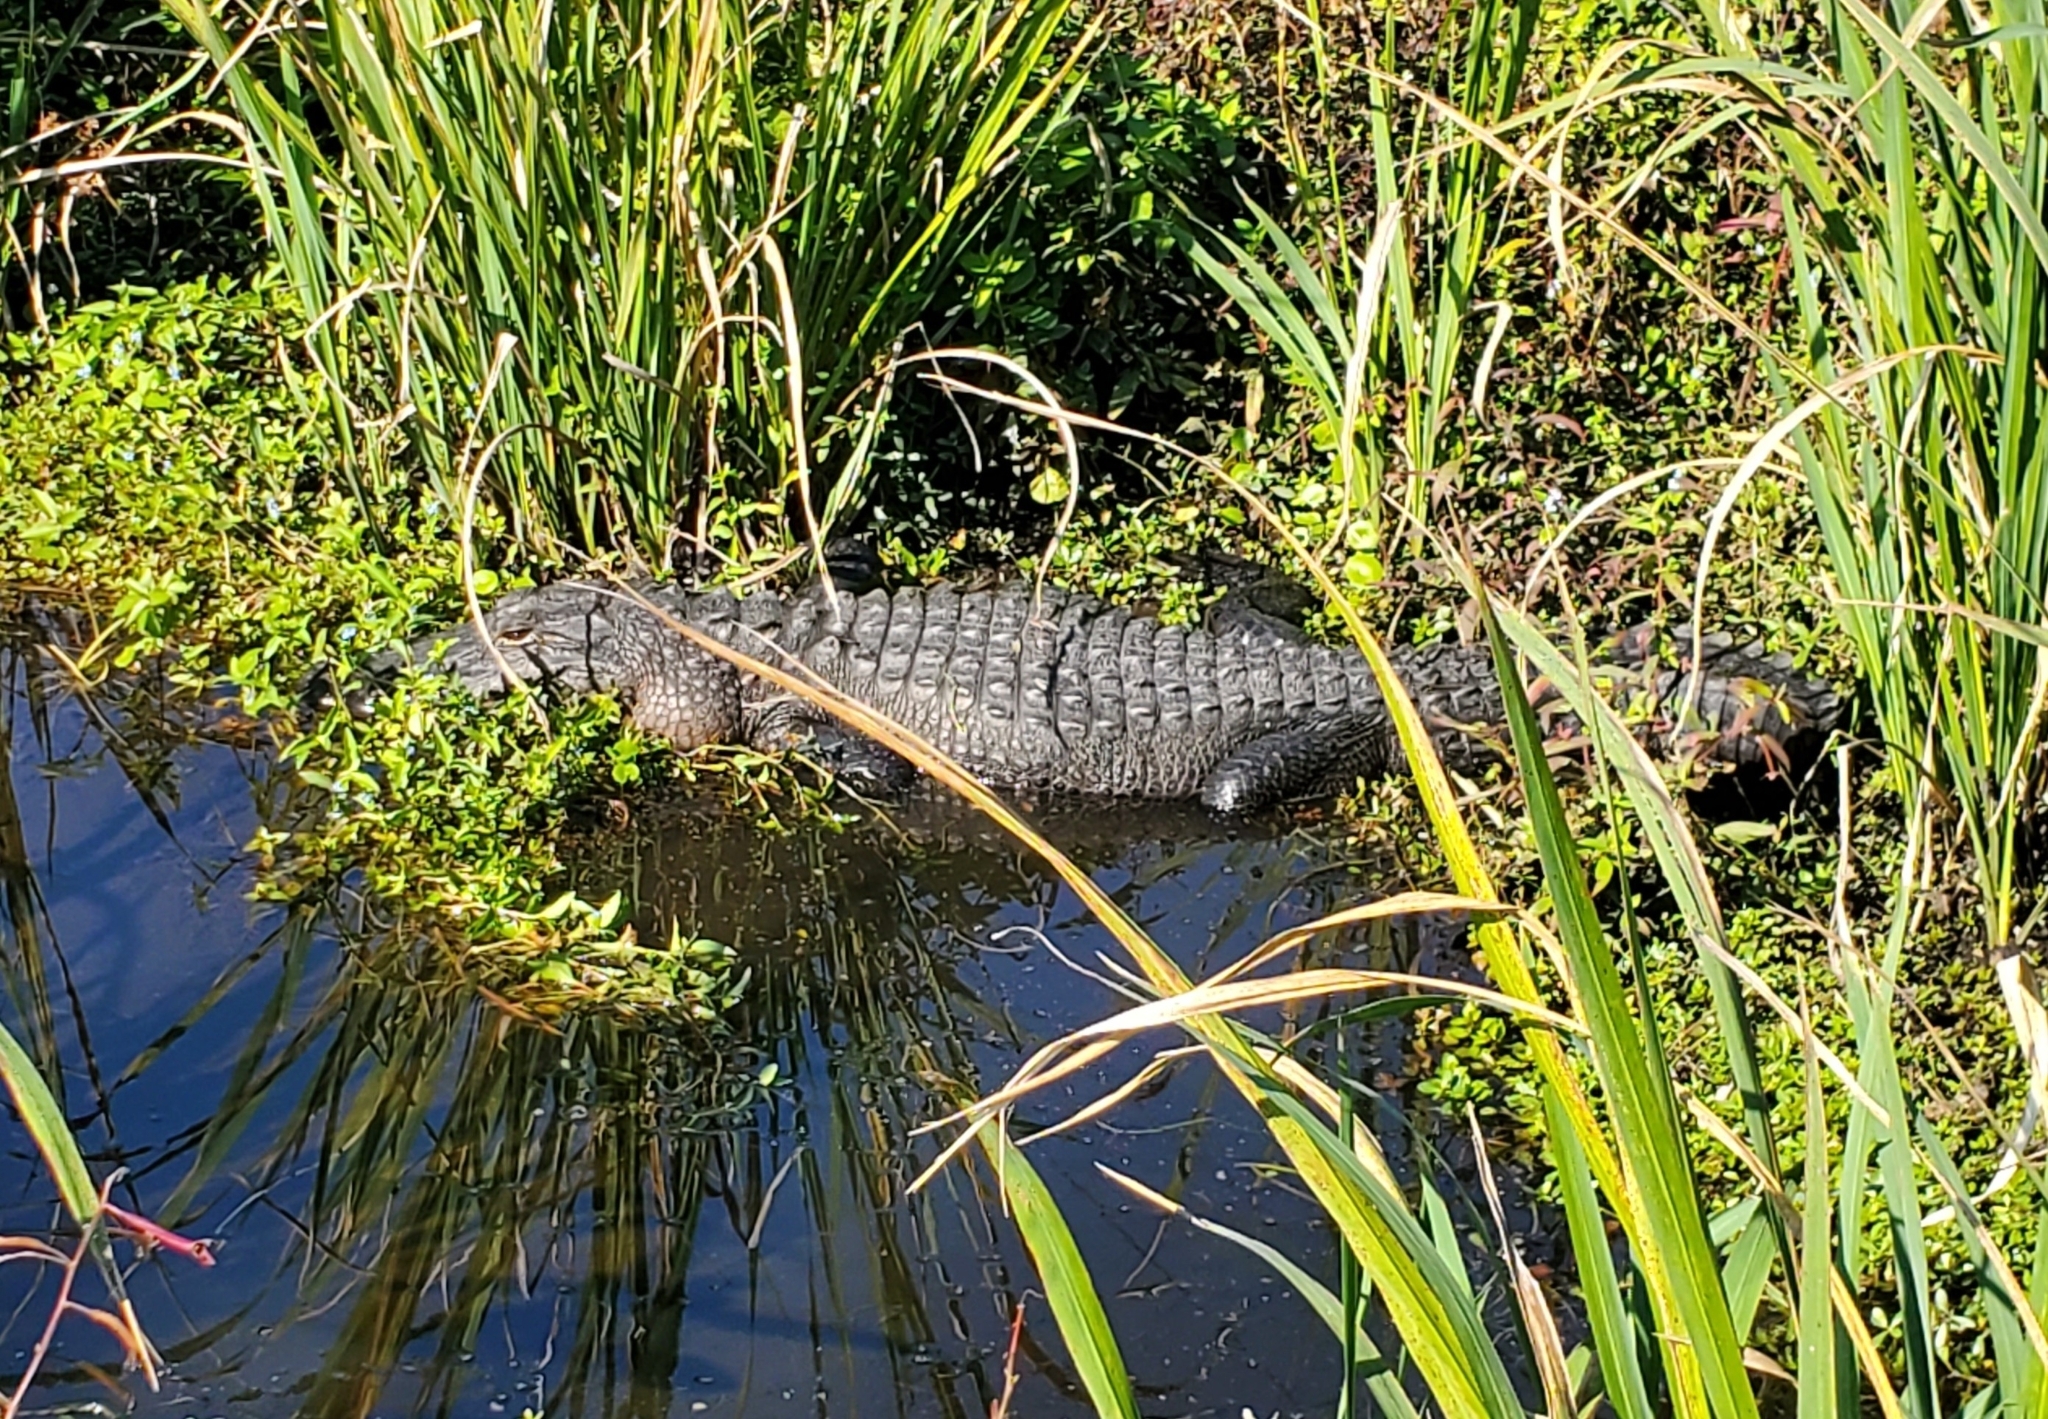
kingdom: Animalia
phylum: Chordata
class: Crocodylia
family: Alligatoridae
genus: Alligator
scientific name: Alligator mississippiensis
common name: American alligator
